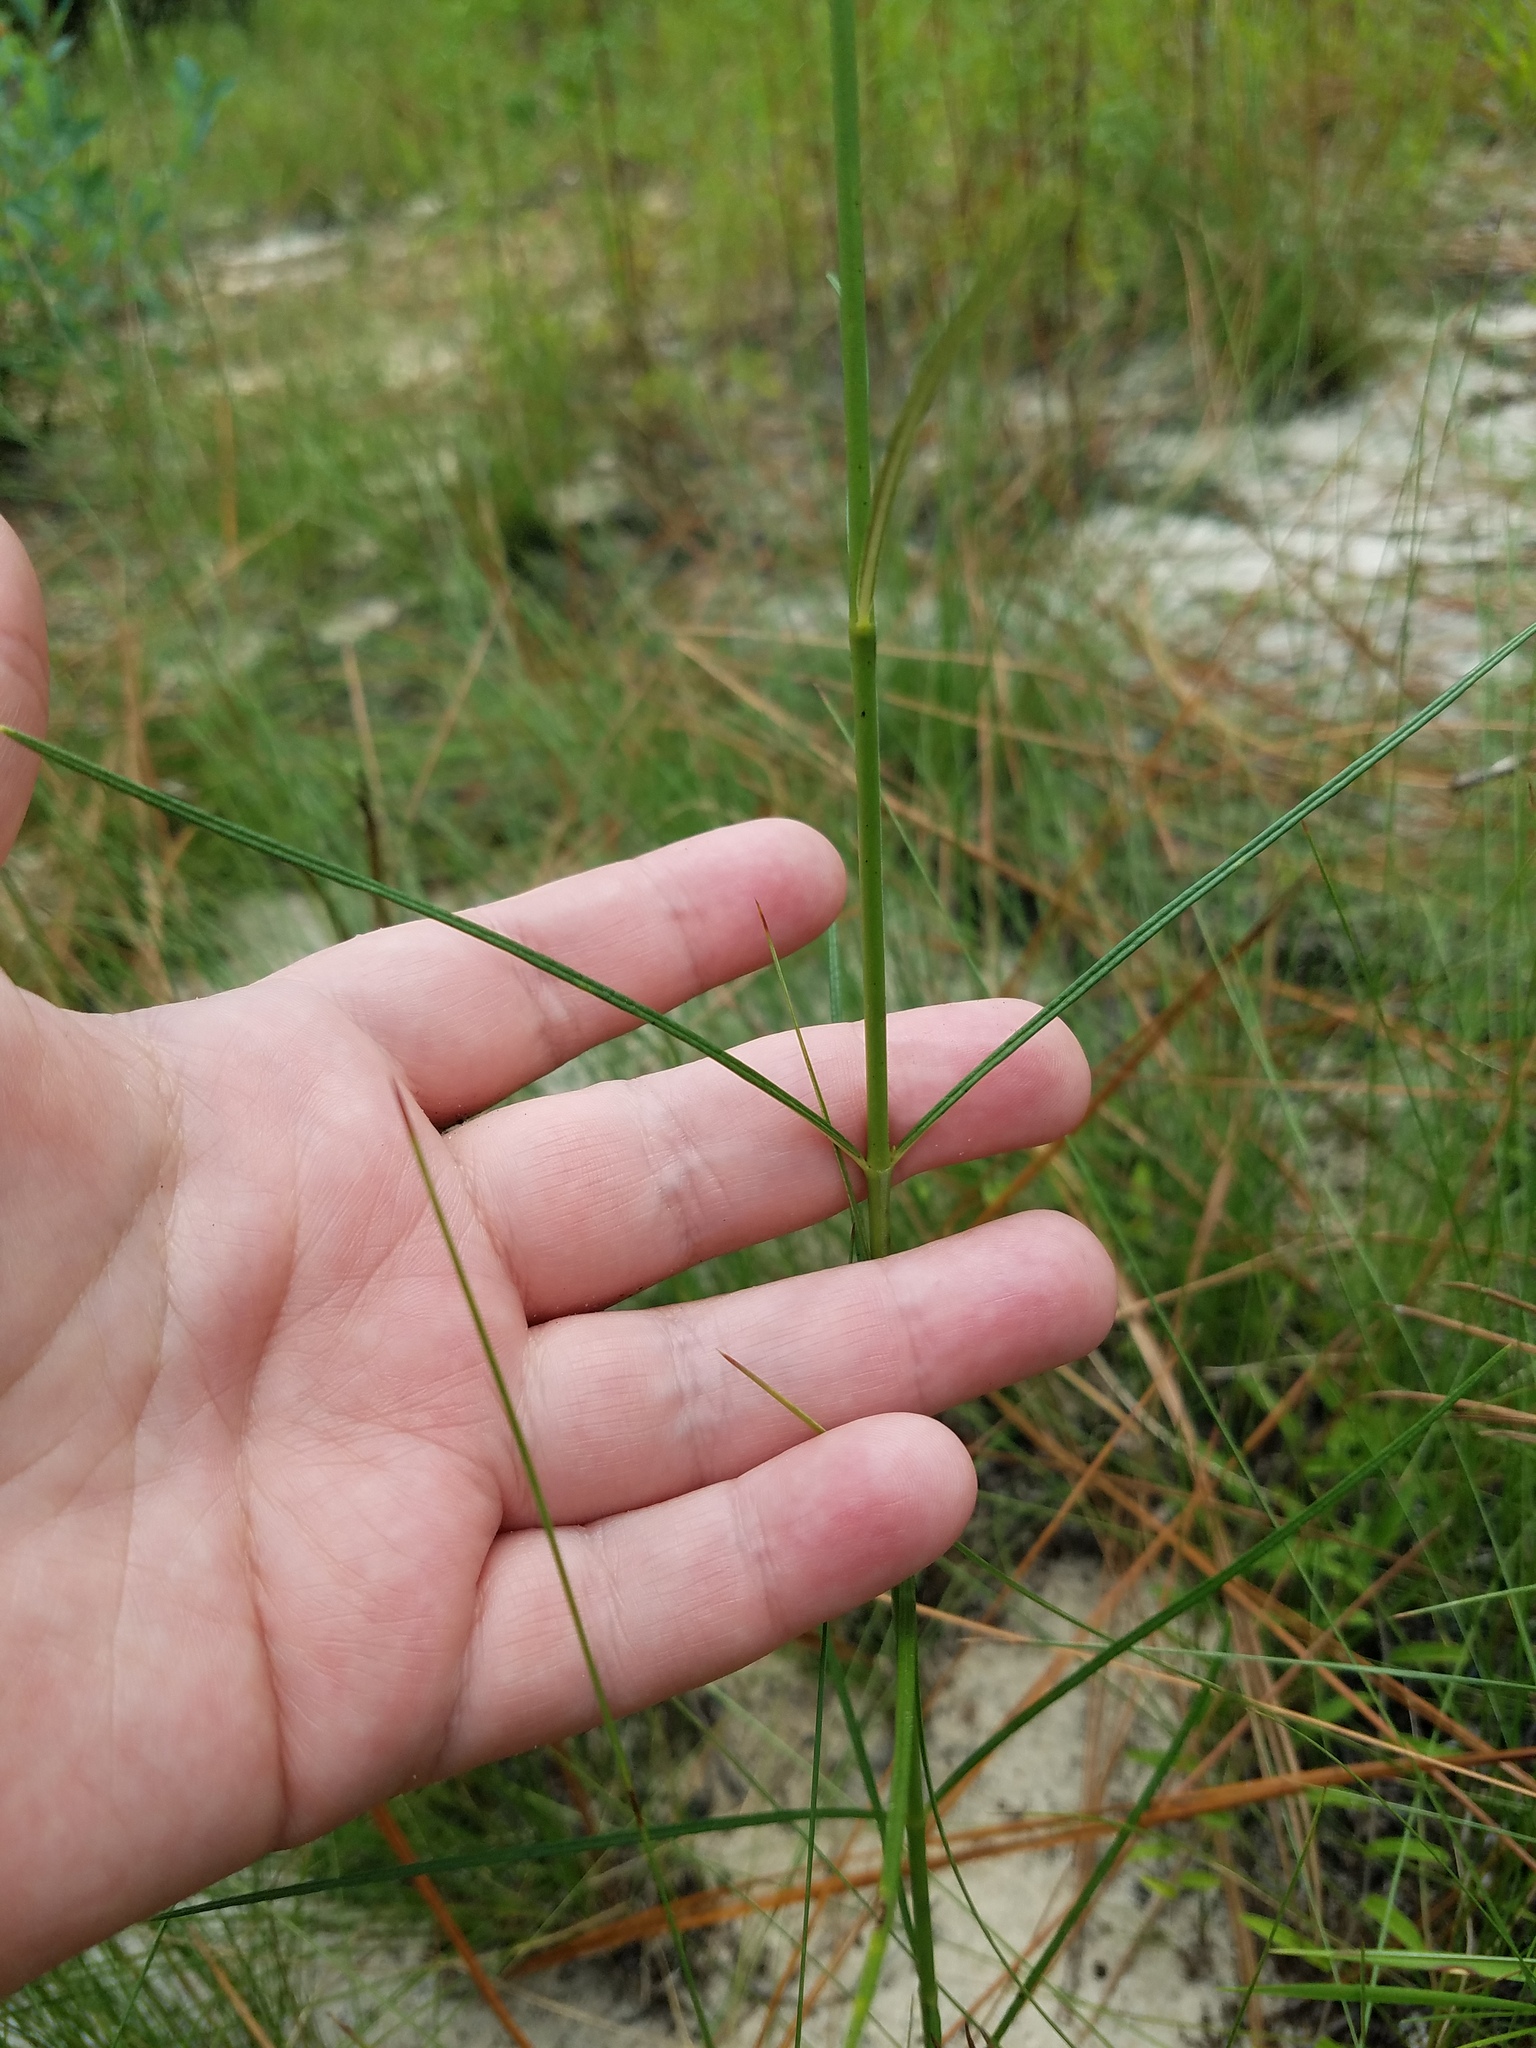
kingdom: Plantae
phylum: Tracheophyta
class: Magnoliopsida
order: Gentianales
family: Apocynaceae
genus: Asclepias
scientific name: Asclepias cinerea
